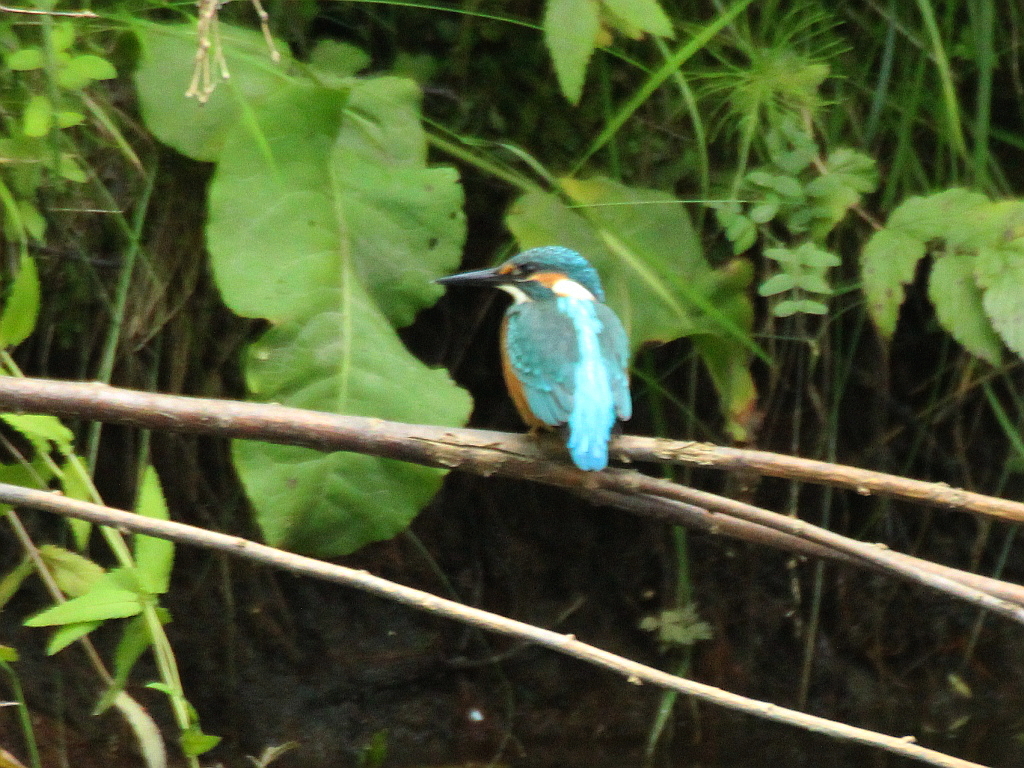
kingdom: Animalia
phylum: Chordata
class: Aves
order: Coraciiformes
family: Alcedinidae
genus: Alcedo
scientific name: Alcedo atthis
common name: Common kingfisher
